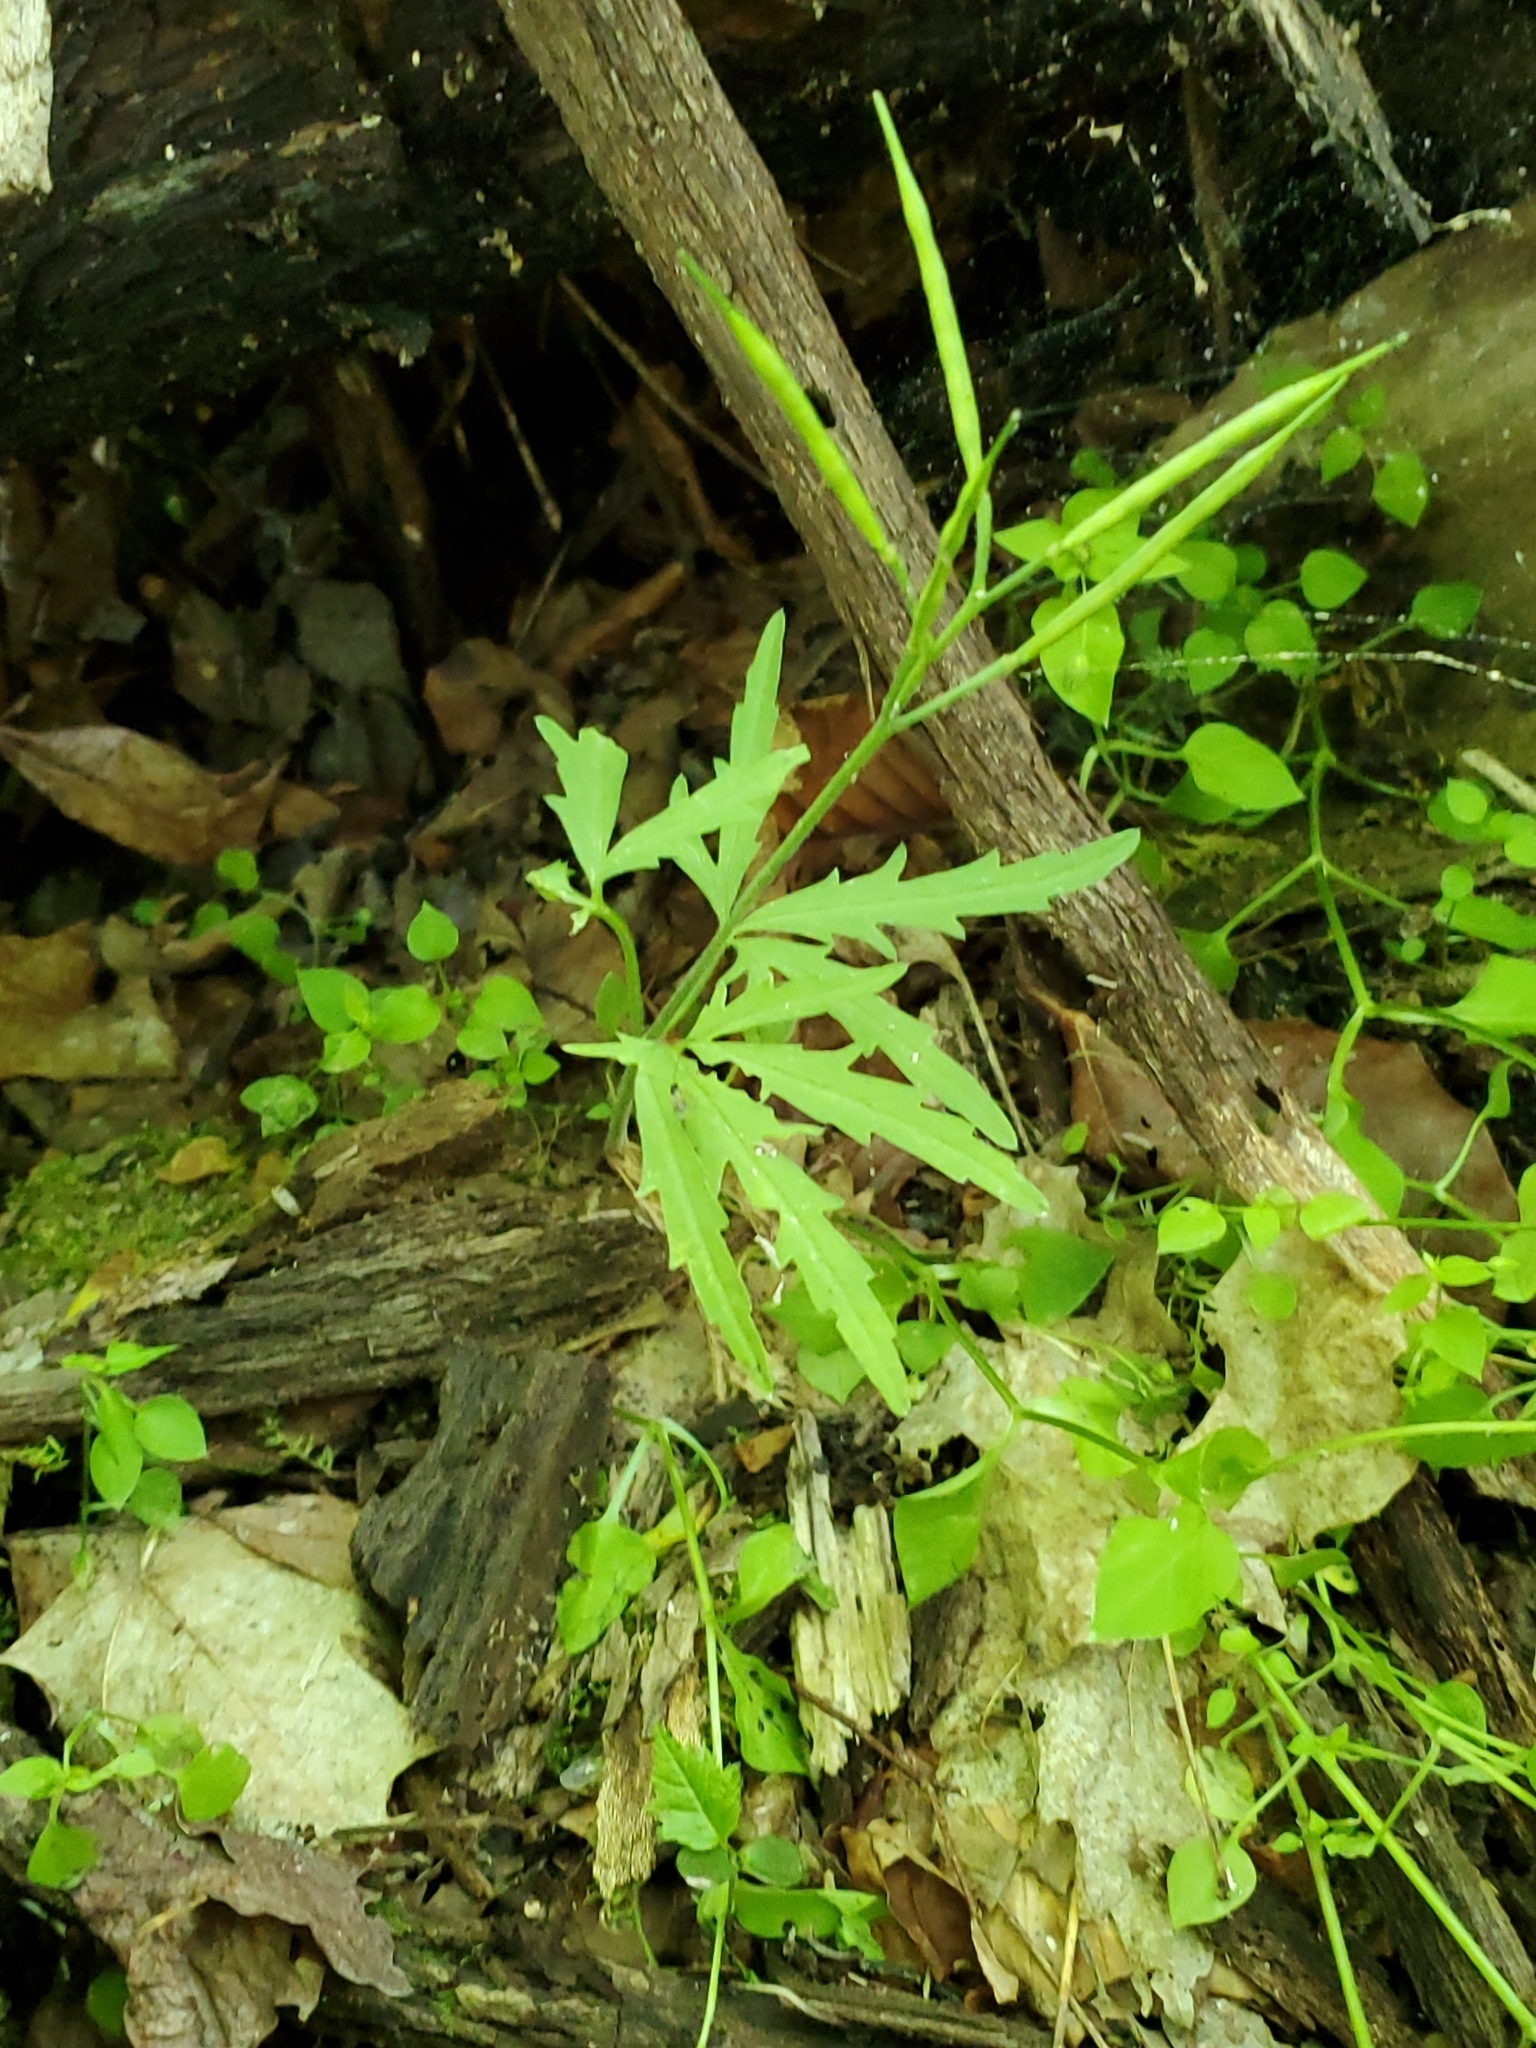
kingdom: Plantae
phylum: Tracheophyta
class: Magnoliopsida
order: Brassicales
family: Brassicaceae
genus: Cardamine
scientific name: Cardamine concatenata
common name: Cut-leaf toothcup
